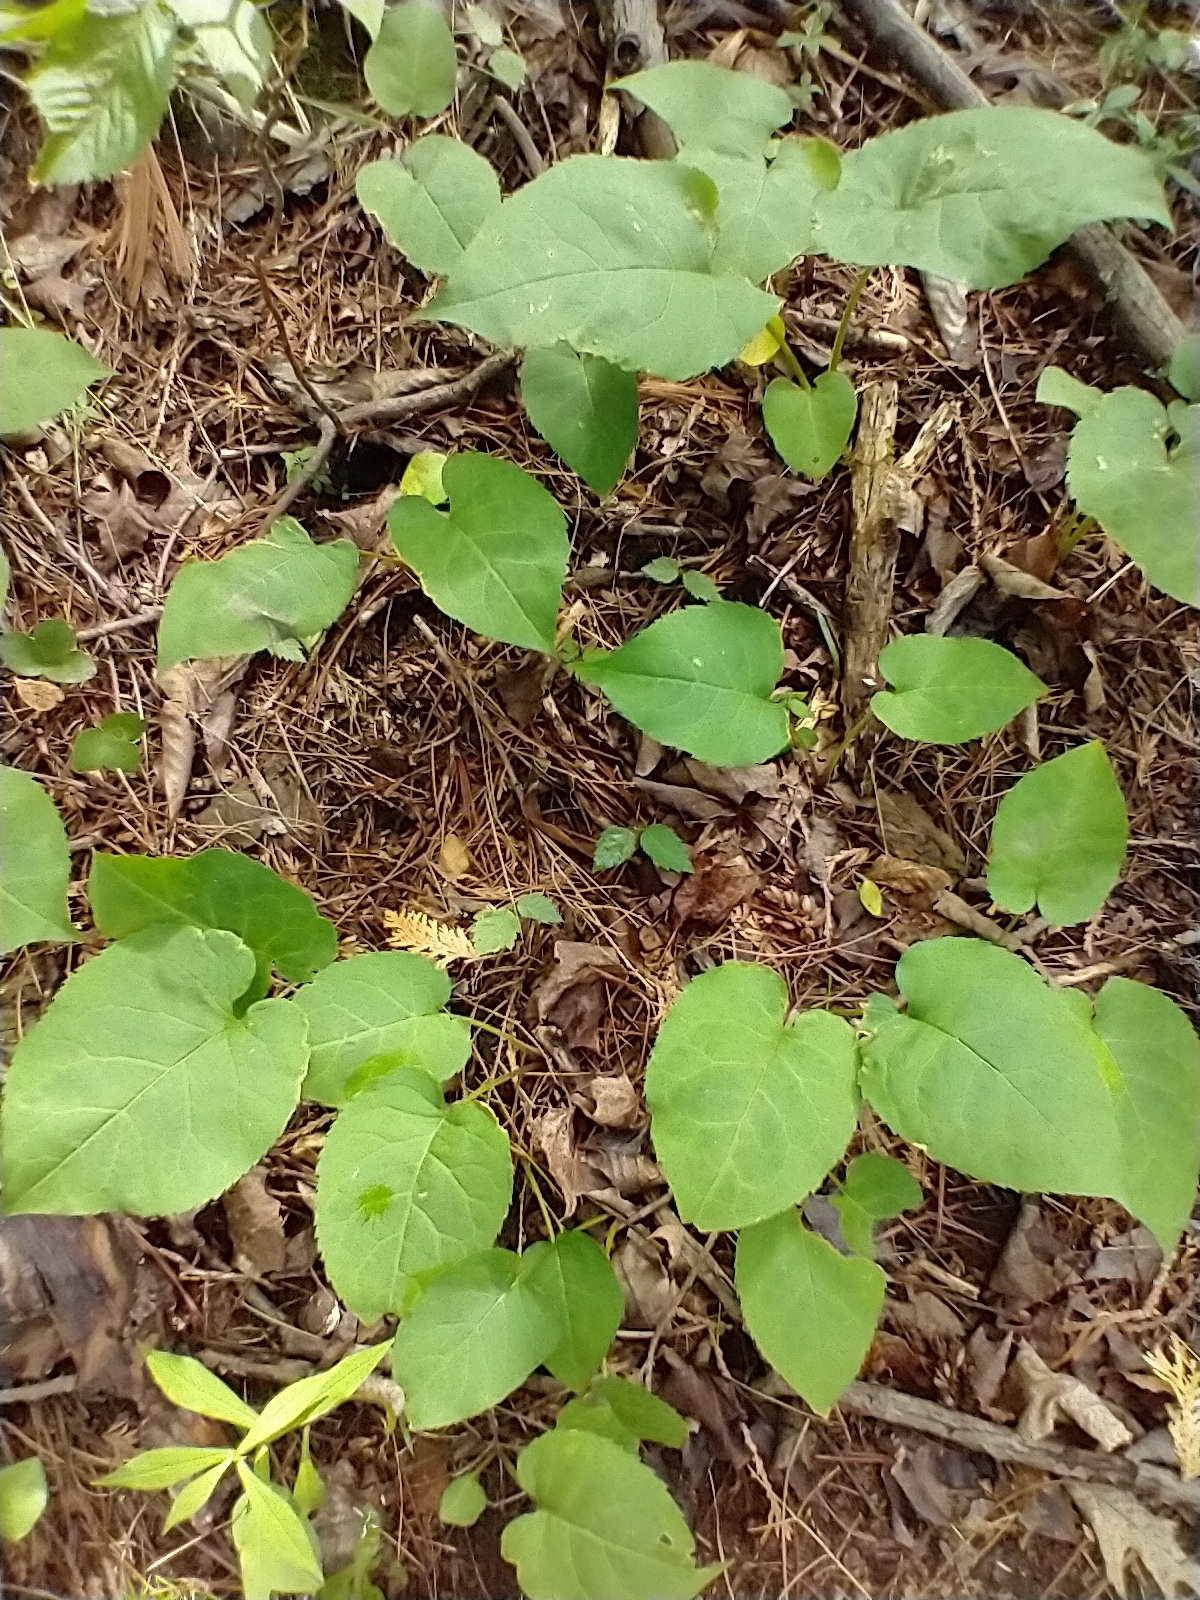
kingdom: Plantae
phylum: Tracheophyta
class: Magnoliopsida
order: Asterales
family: Asteraceae
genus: Eurybia
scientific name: Eurybia macrophylla
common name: Big-leaved aster
